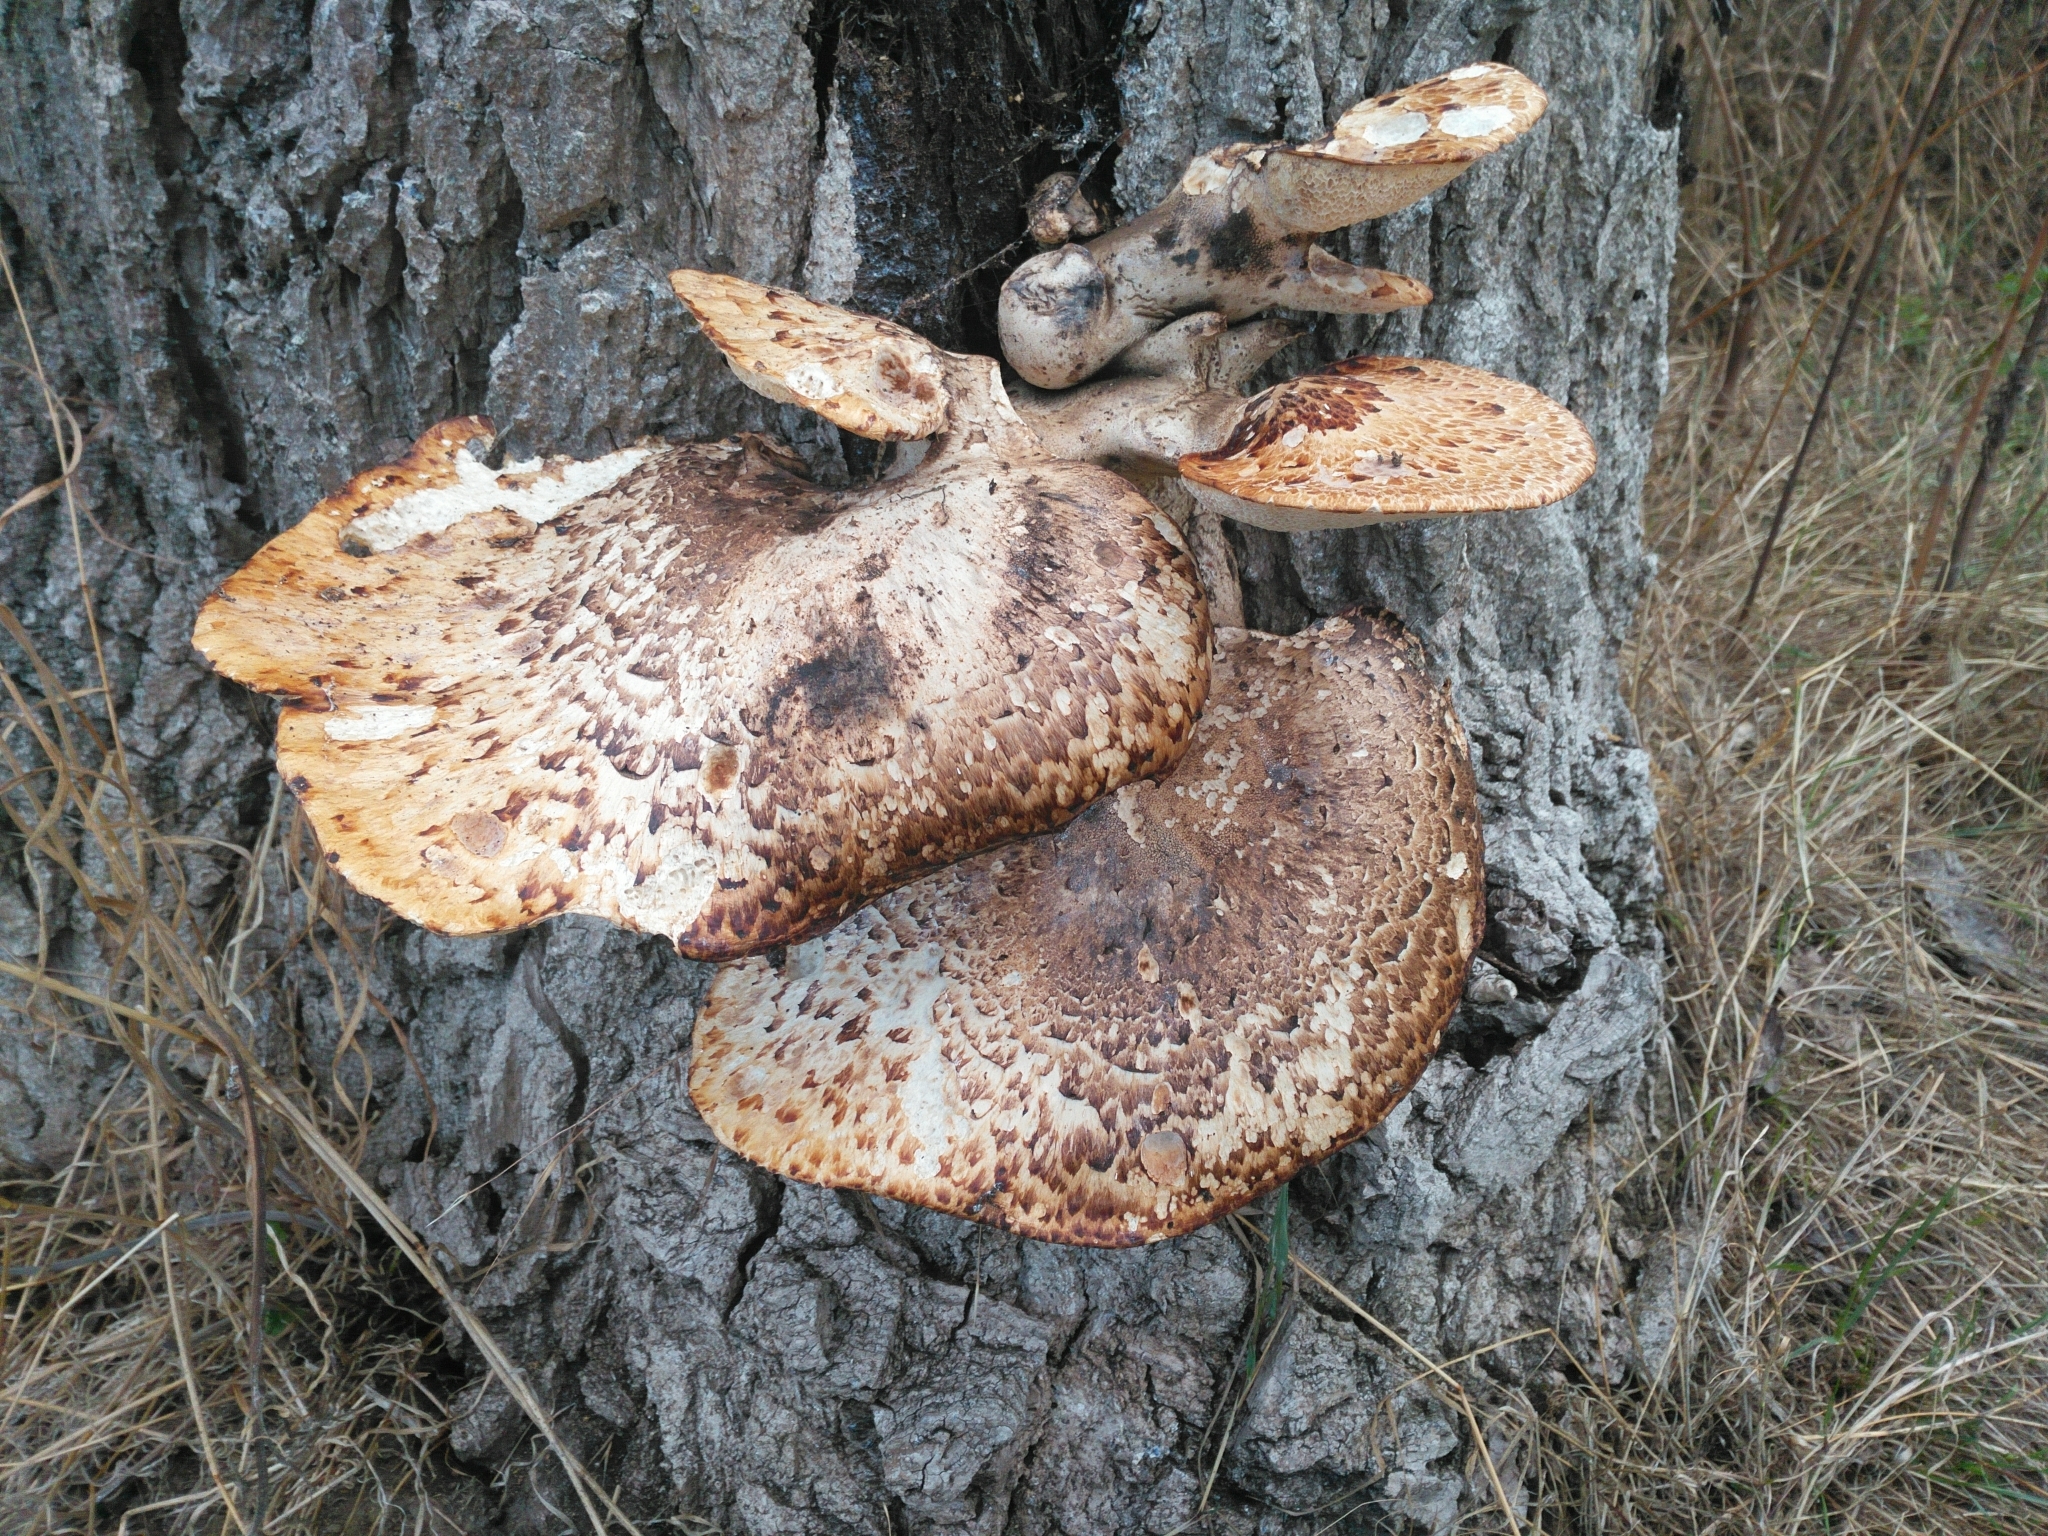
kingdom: Fungi
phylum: Basidiomycota
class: Agaricomycetes
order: Polyporales
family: Polyporaceae
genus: Cerioporus
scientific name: Cerioporus squamosus
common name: Dryad's saddle
